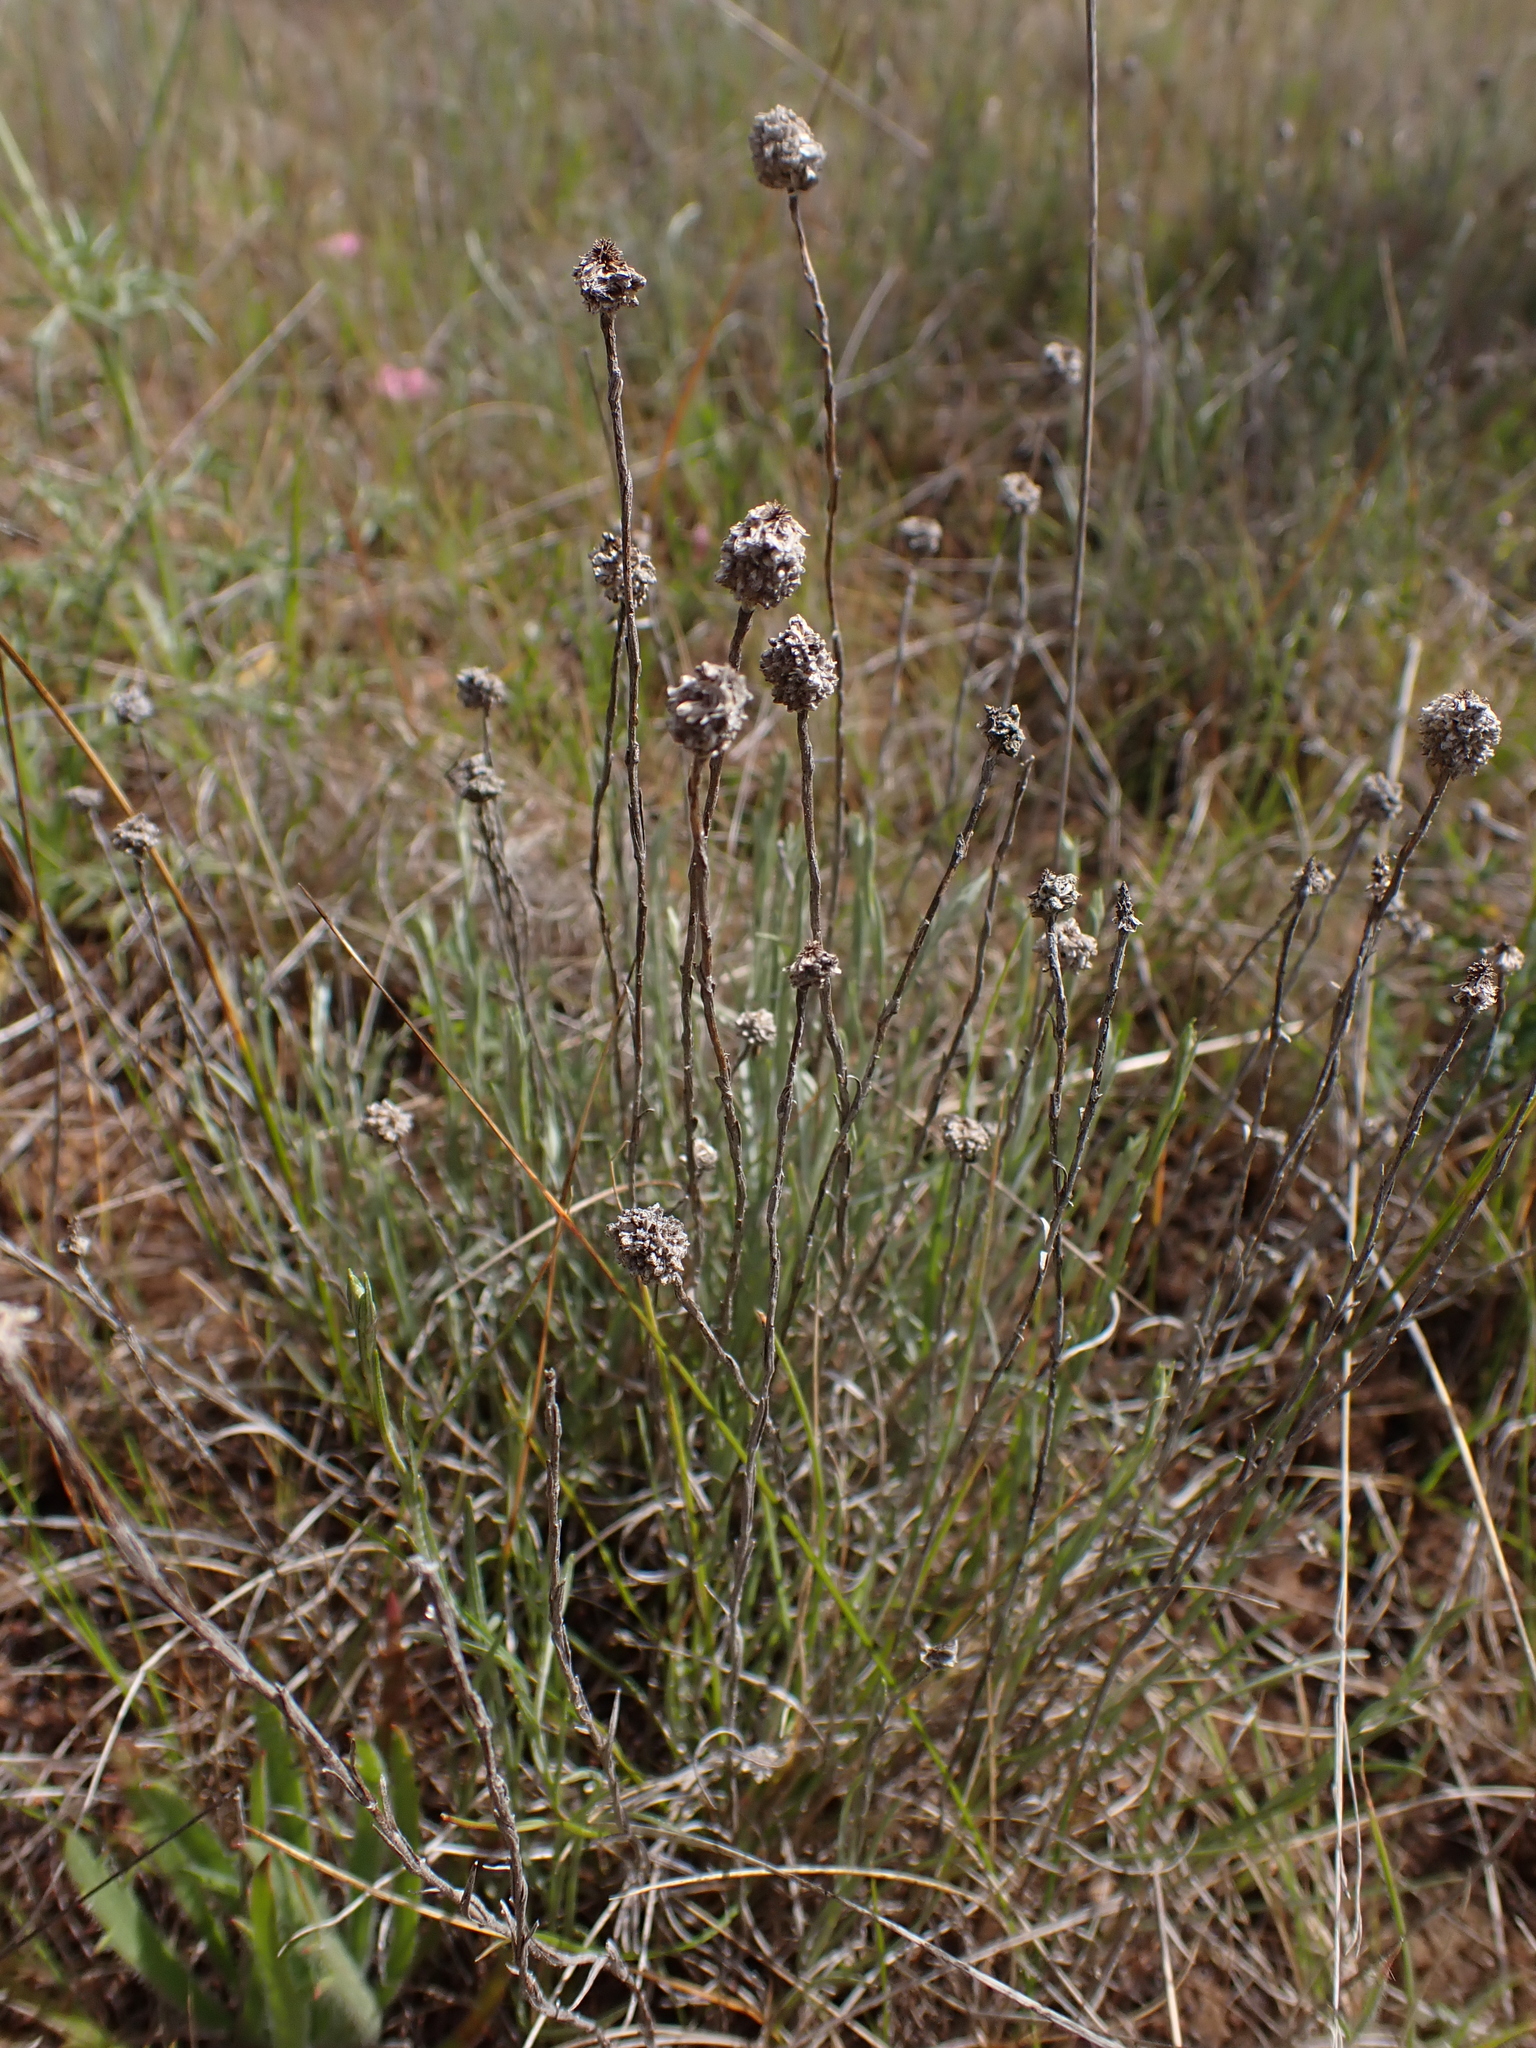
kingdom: Plantae
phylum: Tracheophyta
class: Magnoliopsida
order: Asterales
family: Asteraceae
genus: Calocephalus
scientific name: Calocephalus lacteus
